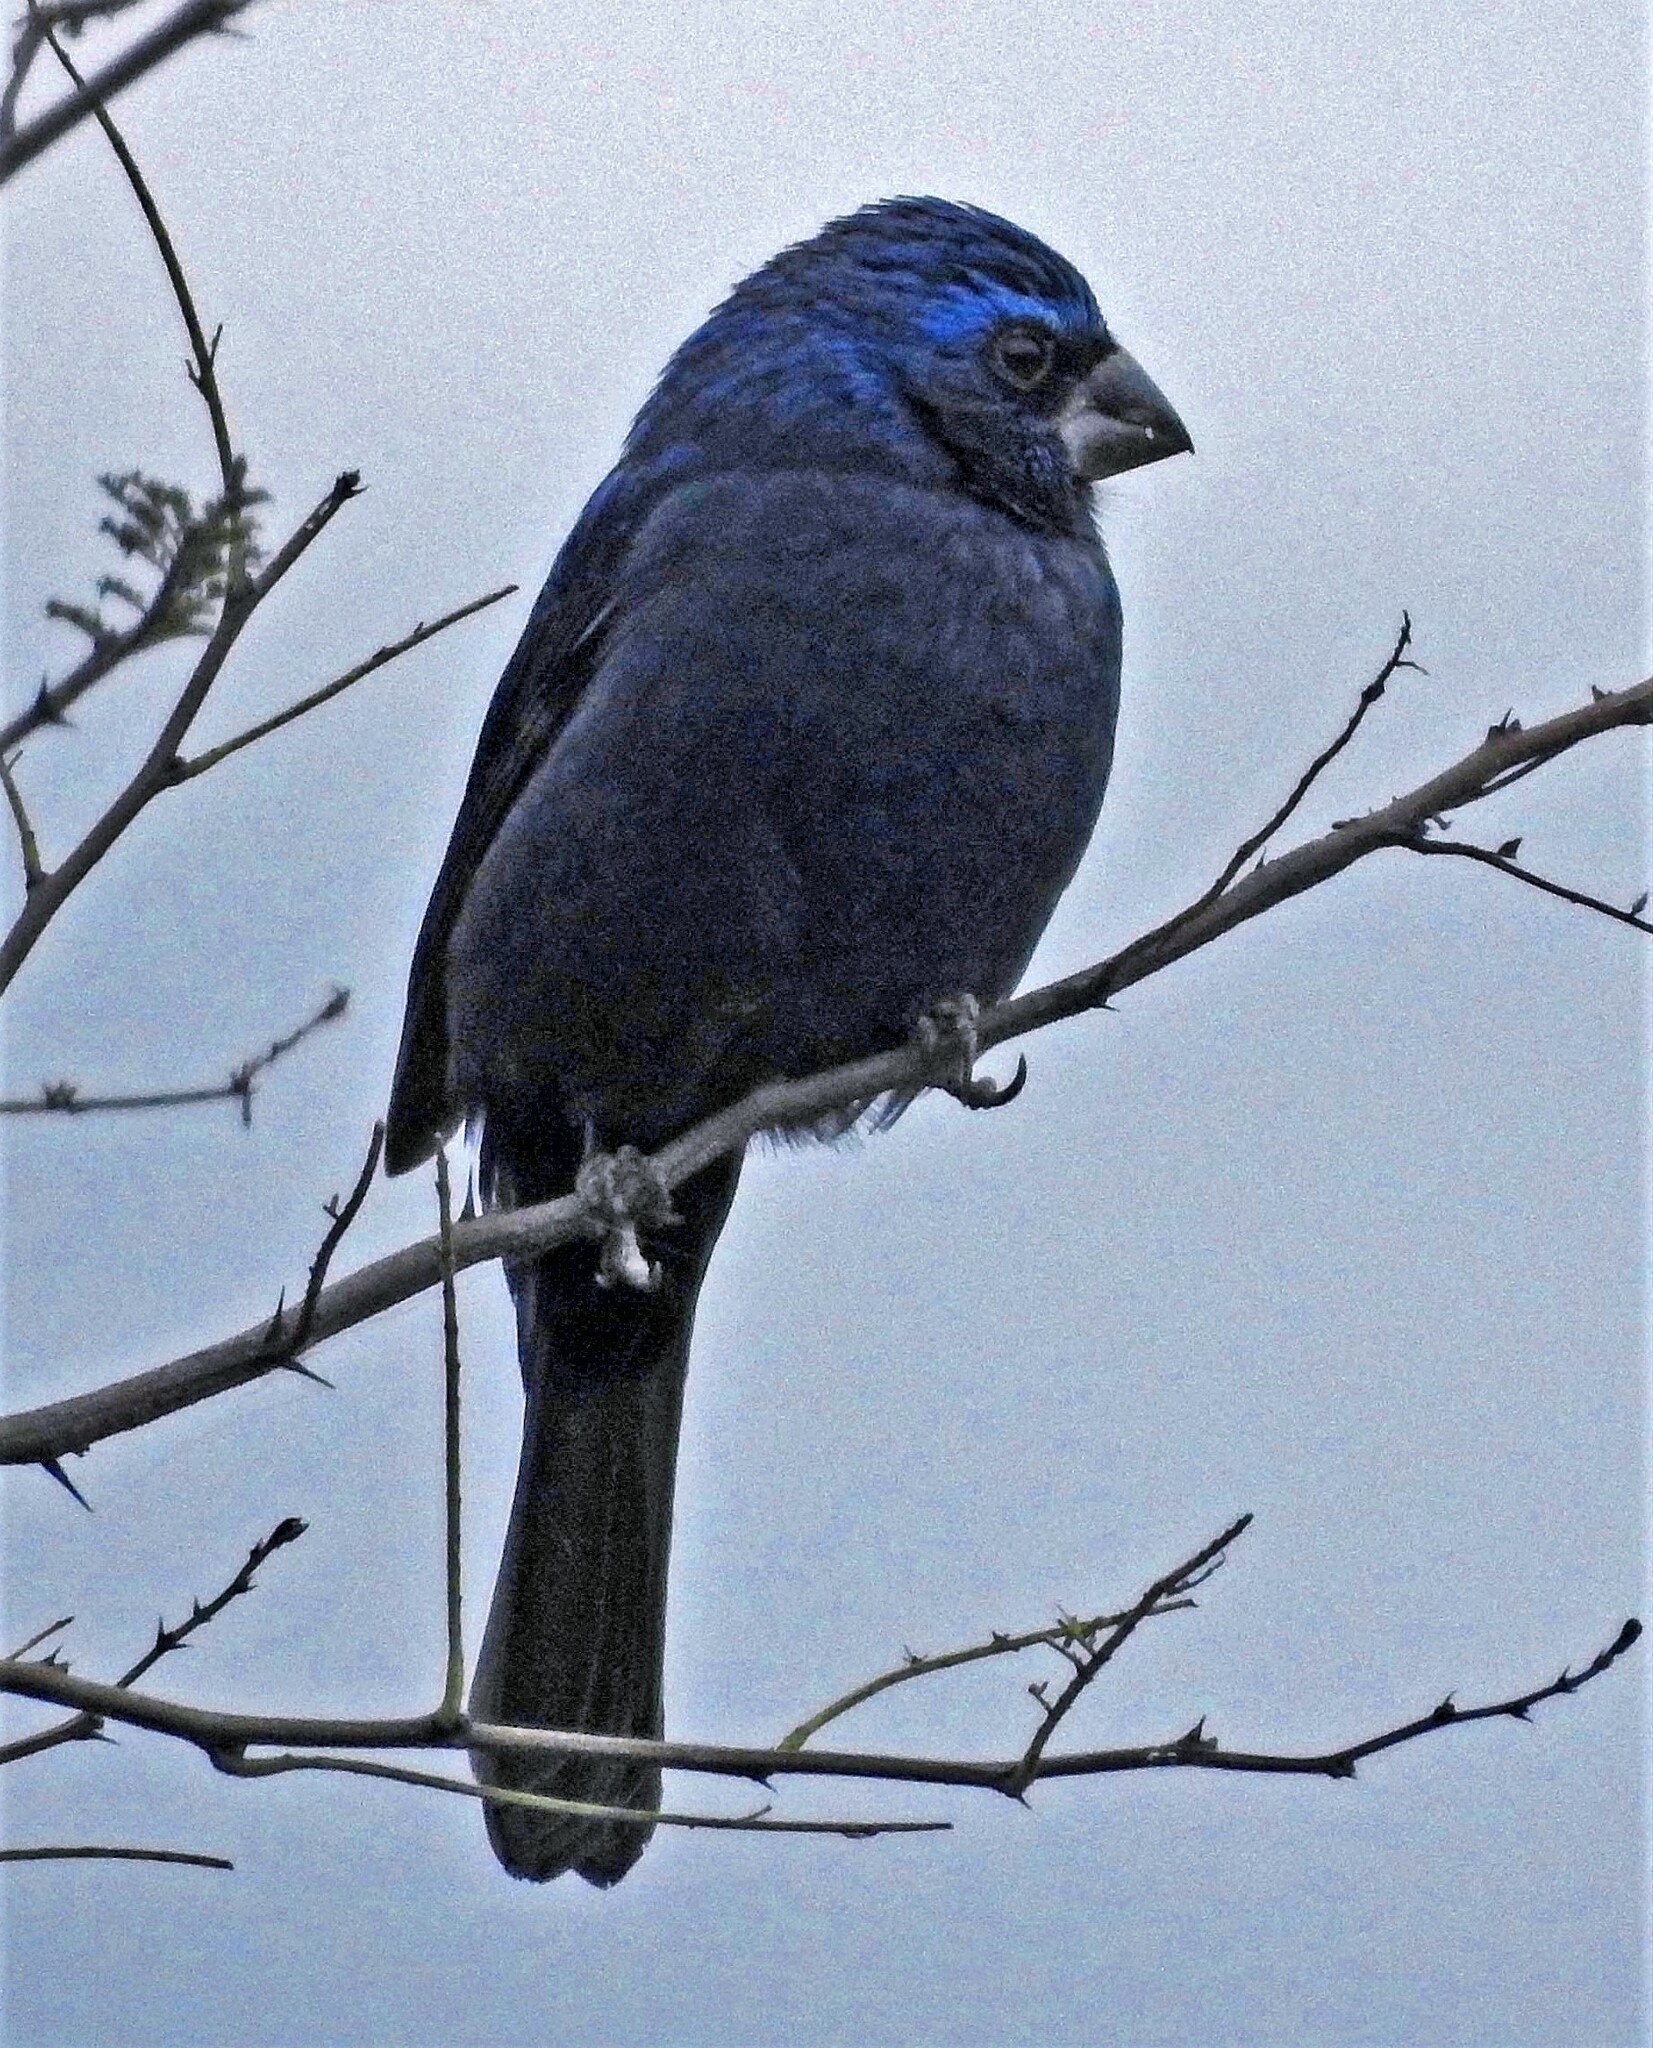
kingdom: Animalia
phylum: Chordata
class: Aves
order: Passeriformes
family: Cardinalidae
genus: Cyanoloxia
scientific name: Cyanoloxia brissonii
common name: Ultramarine grosbeak
